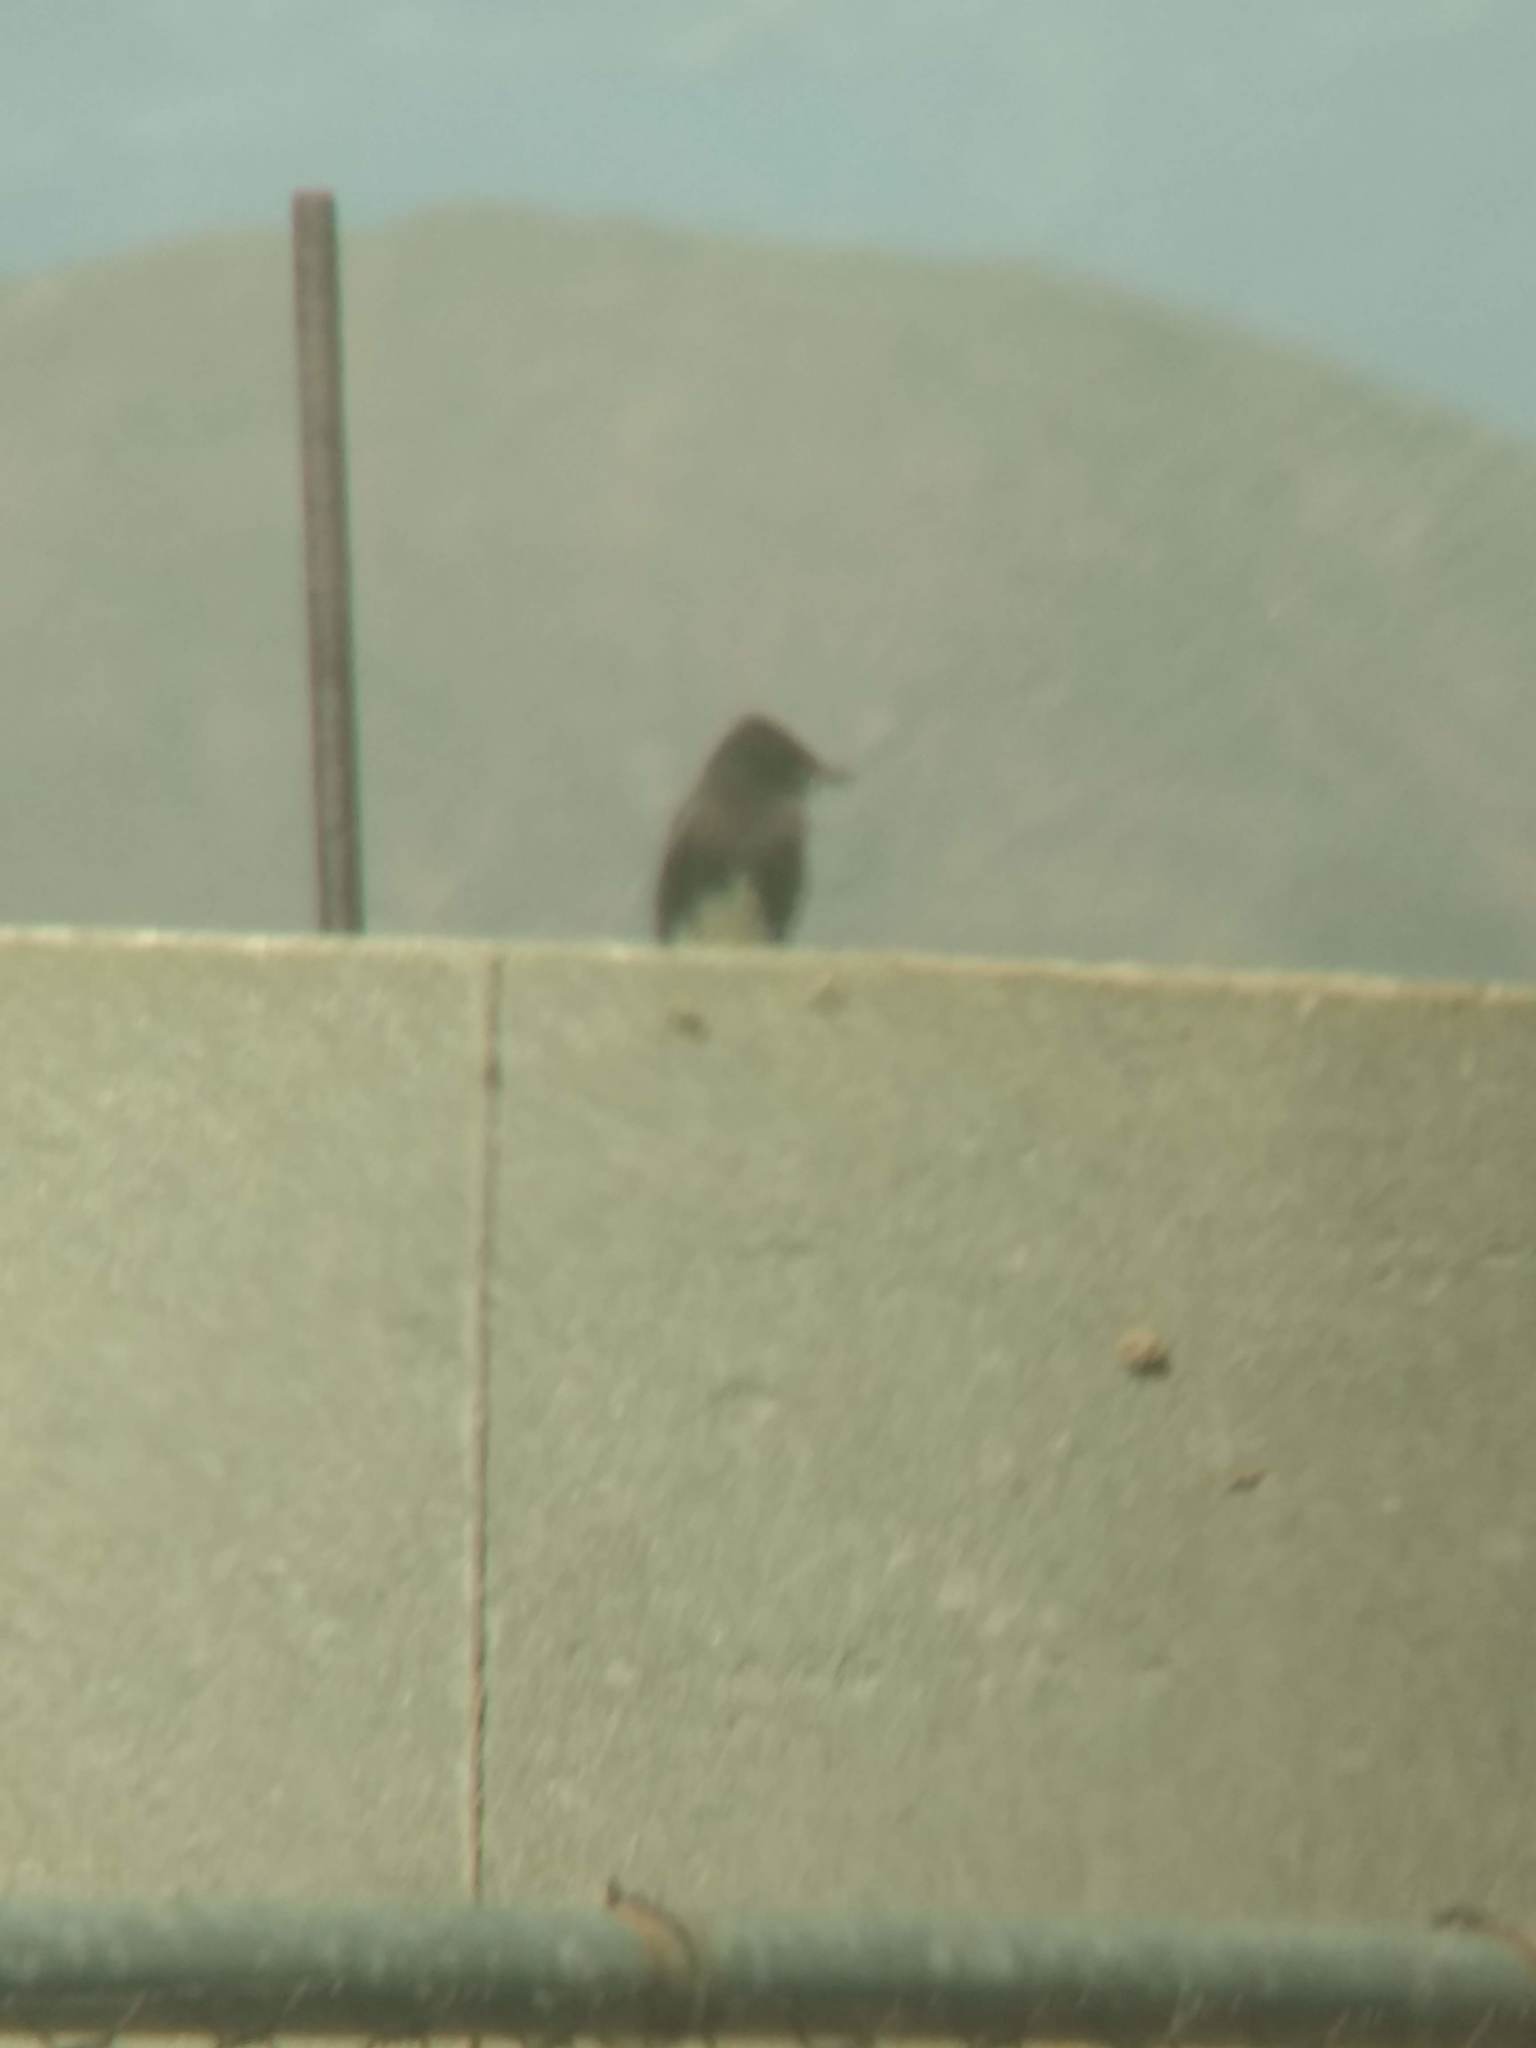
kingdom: Animalia
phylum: Chordata
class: Aves
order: Passeriformes
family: Tyrannidae
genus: Sayornis
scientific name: Sayornis nigricans
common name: Black phoebe
